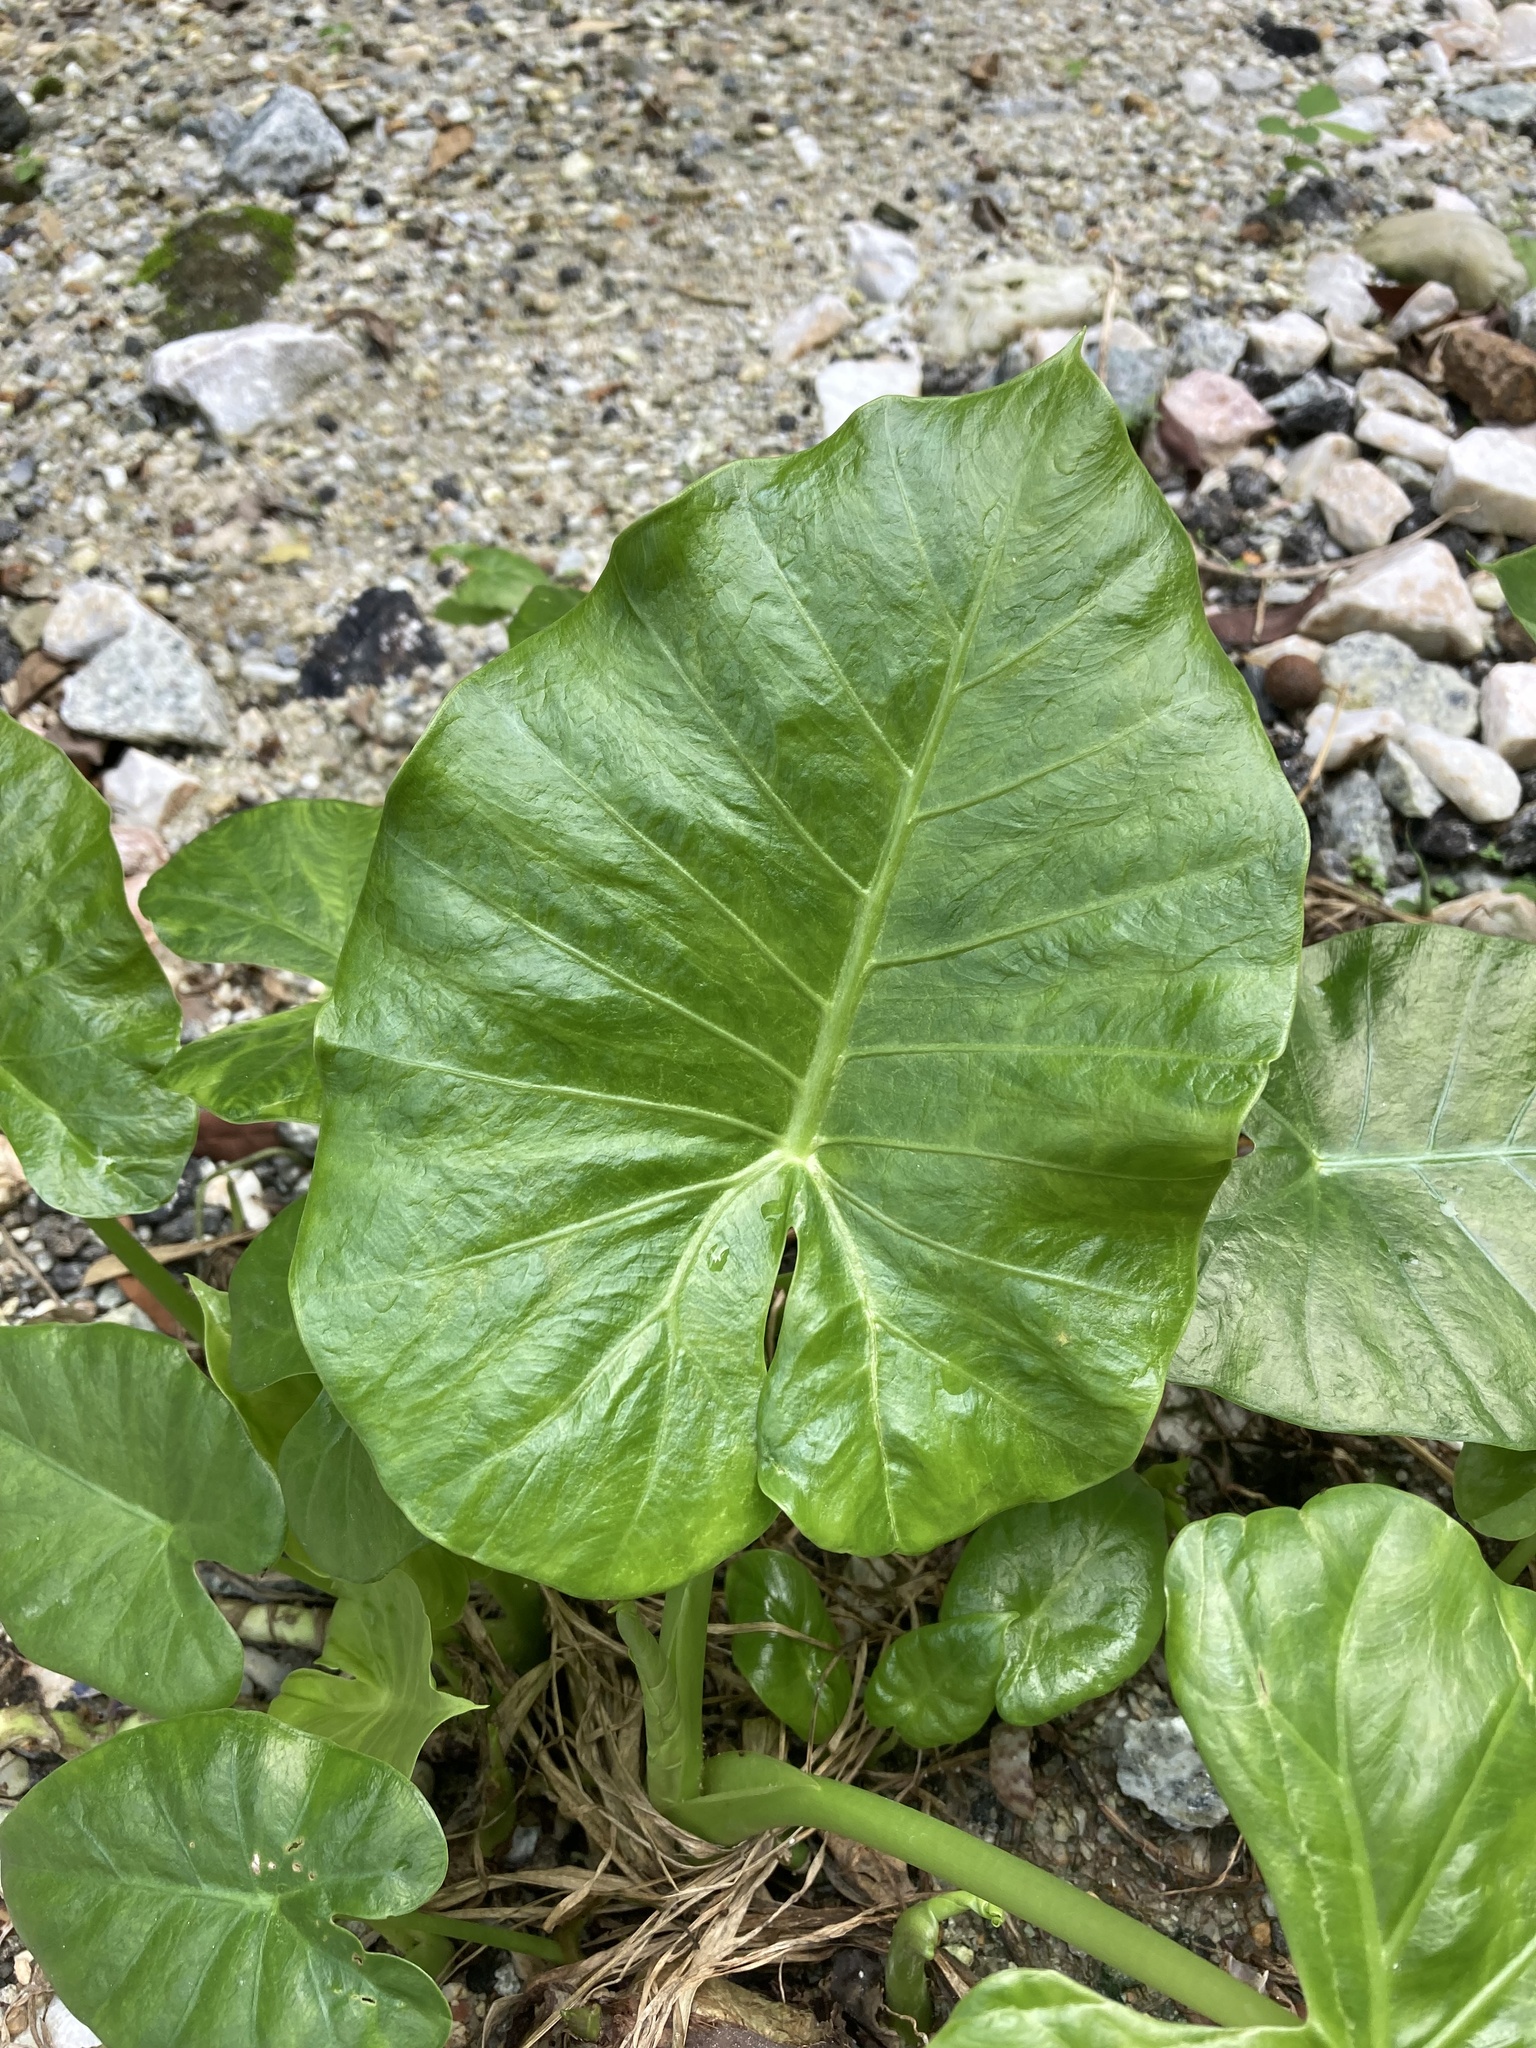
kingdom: Plantae
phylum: Tracheophyta
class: Liliopsida
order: Alismatales
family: Araceae
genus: Alocasia
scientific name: Alocasia odora
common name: Asian taro
